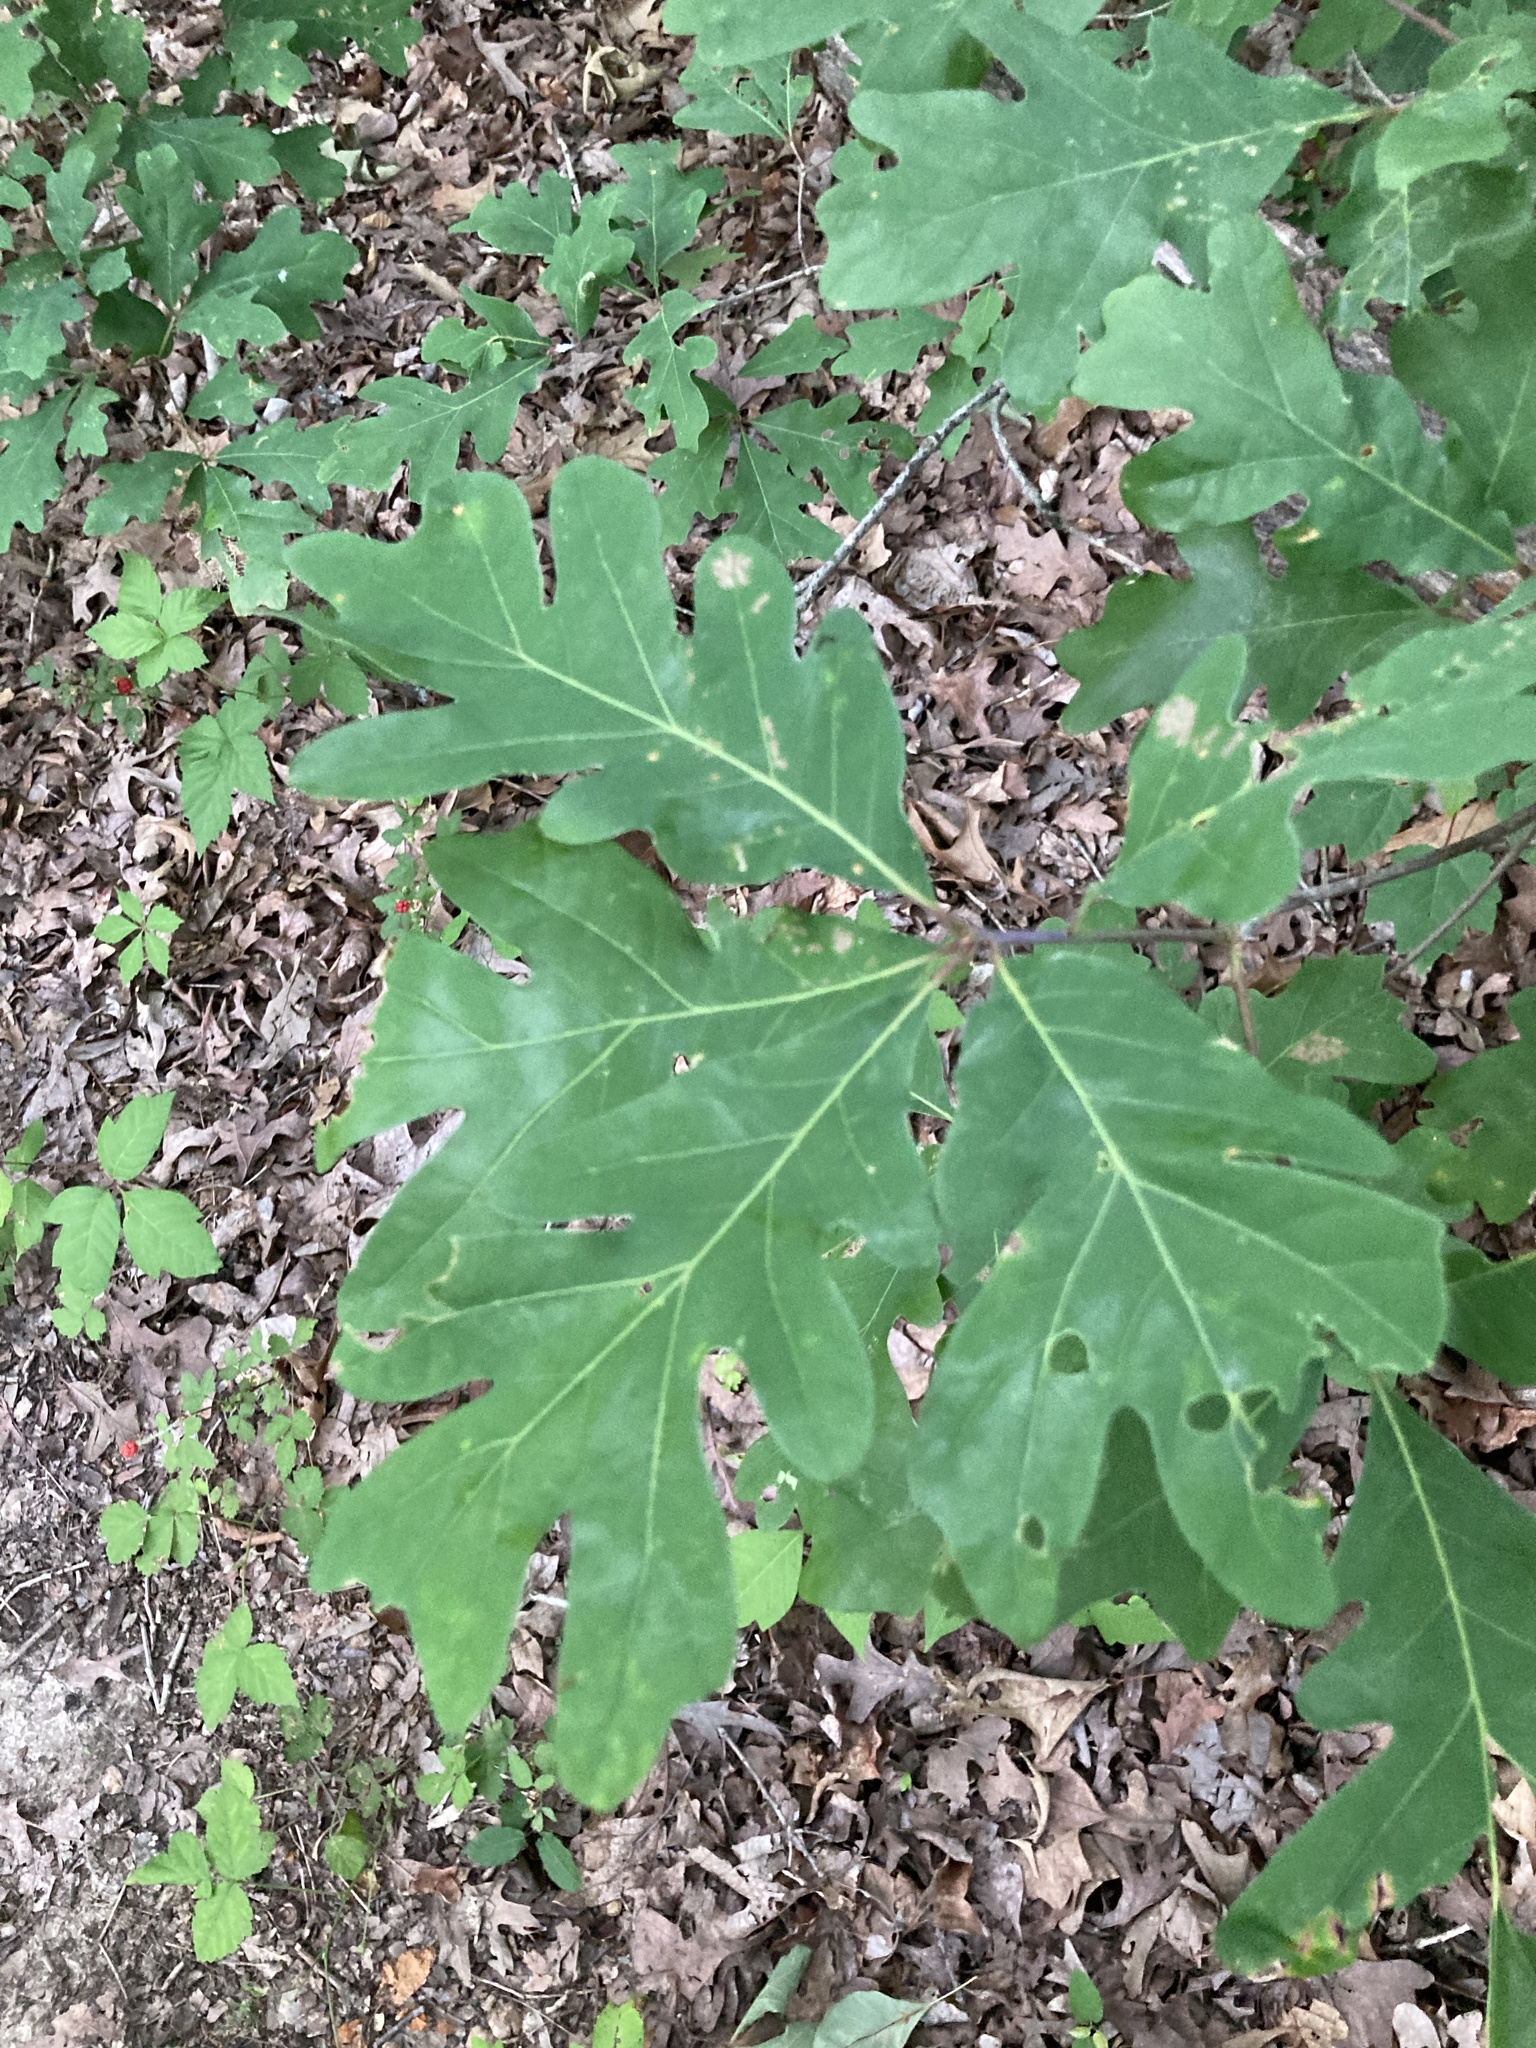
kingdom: Plantae
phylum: Tracheophyta
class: Magnoliopsida
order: Fagales
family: Fagaceae
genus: Quercus
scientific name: Quercus alba
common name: White oak
